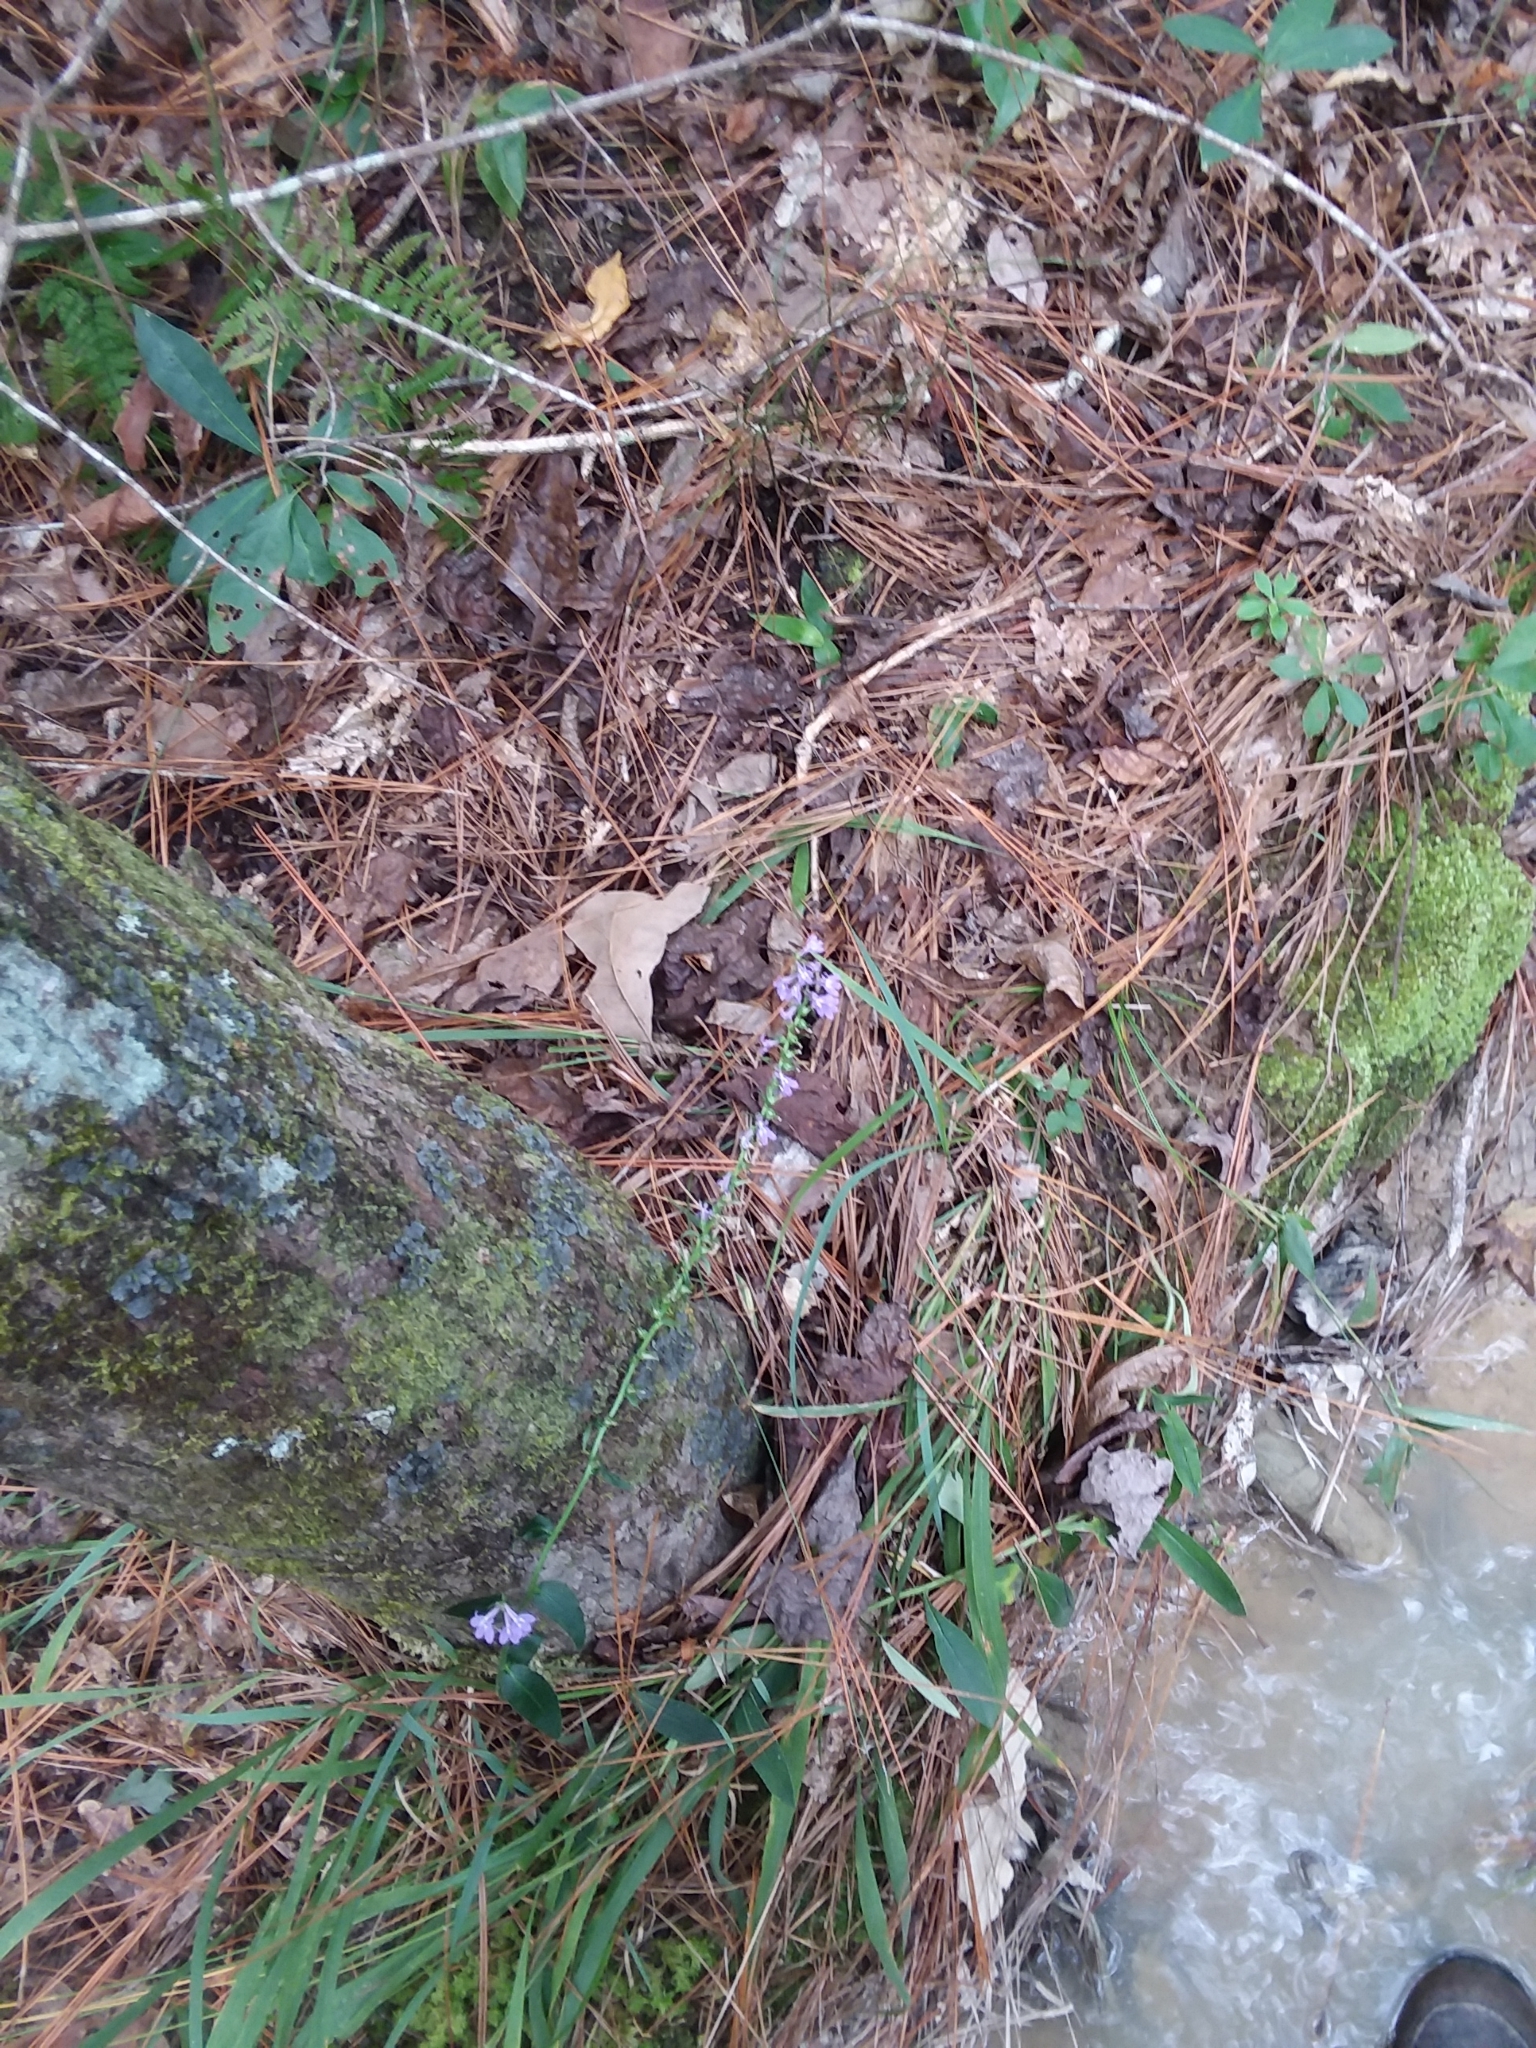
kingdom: Plantae
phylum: Tracheophyta
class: Magnoliopsida
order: Asterales
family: Campanulaceae
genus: Lobelia
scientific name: Lobelia puberula
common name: Purple dewdrop
